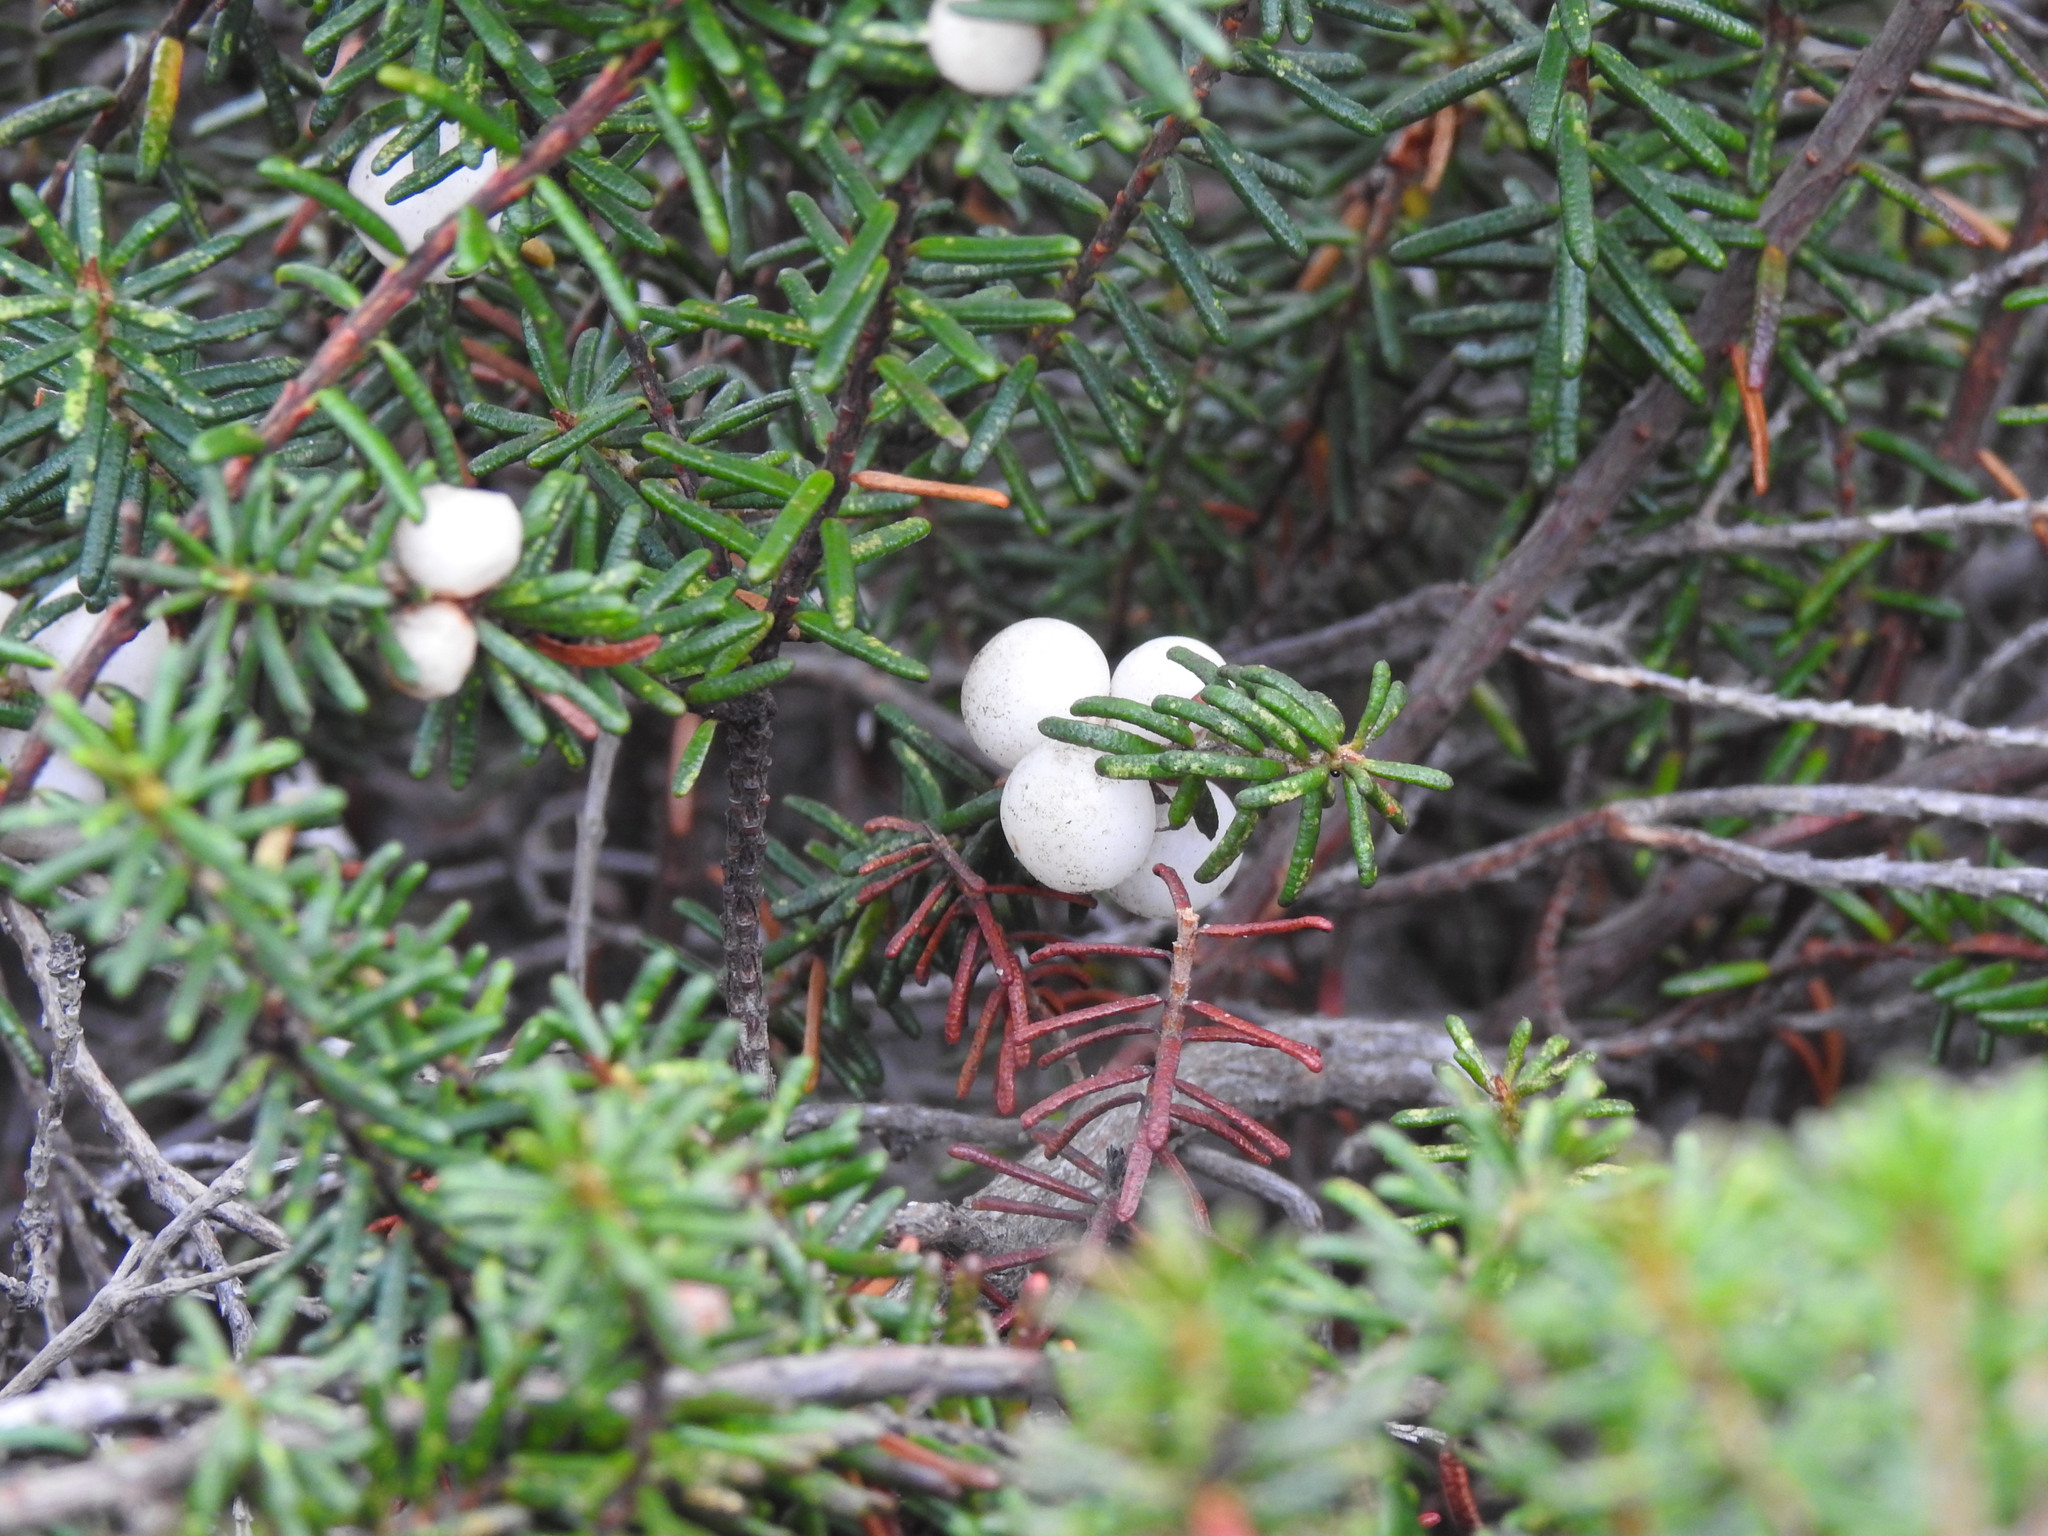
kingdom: Plantae
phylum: Tracheophyta
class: Magnoliopsida
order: Ericales
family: Ericaceae
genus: Corema
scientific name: Corema album
